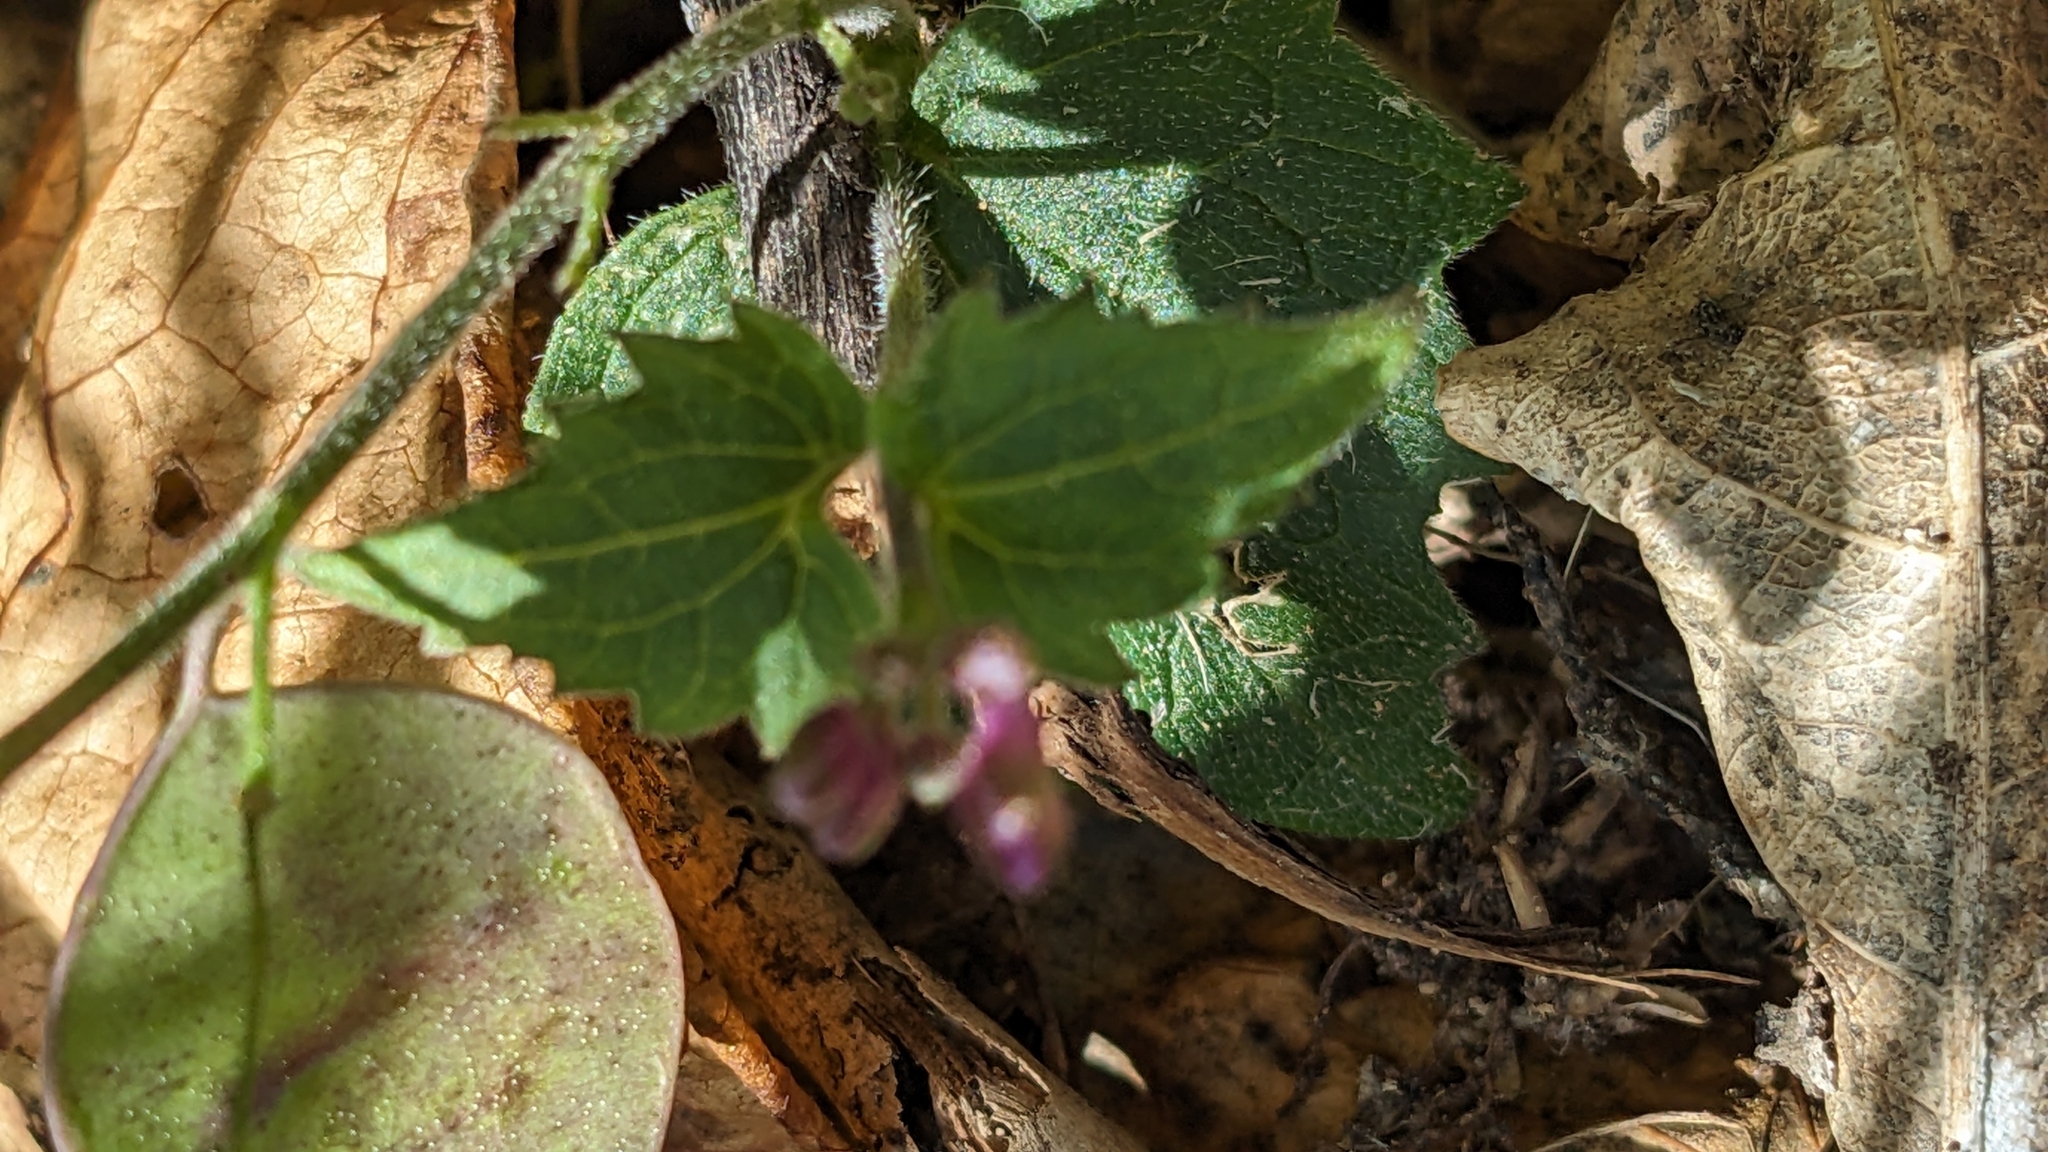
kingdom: Plantae
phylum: Tracheophyta
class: Magnoliopsida
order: Brassicales
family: Brassicaceae
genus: Lunaria
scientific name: Lunaria annua
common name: Honesty
